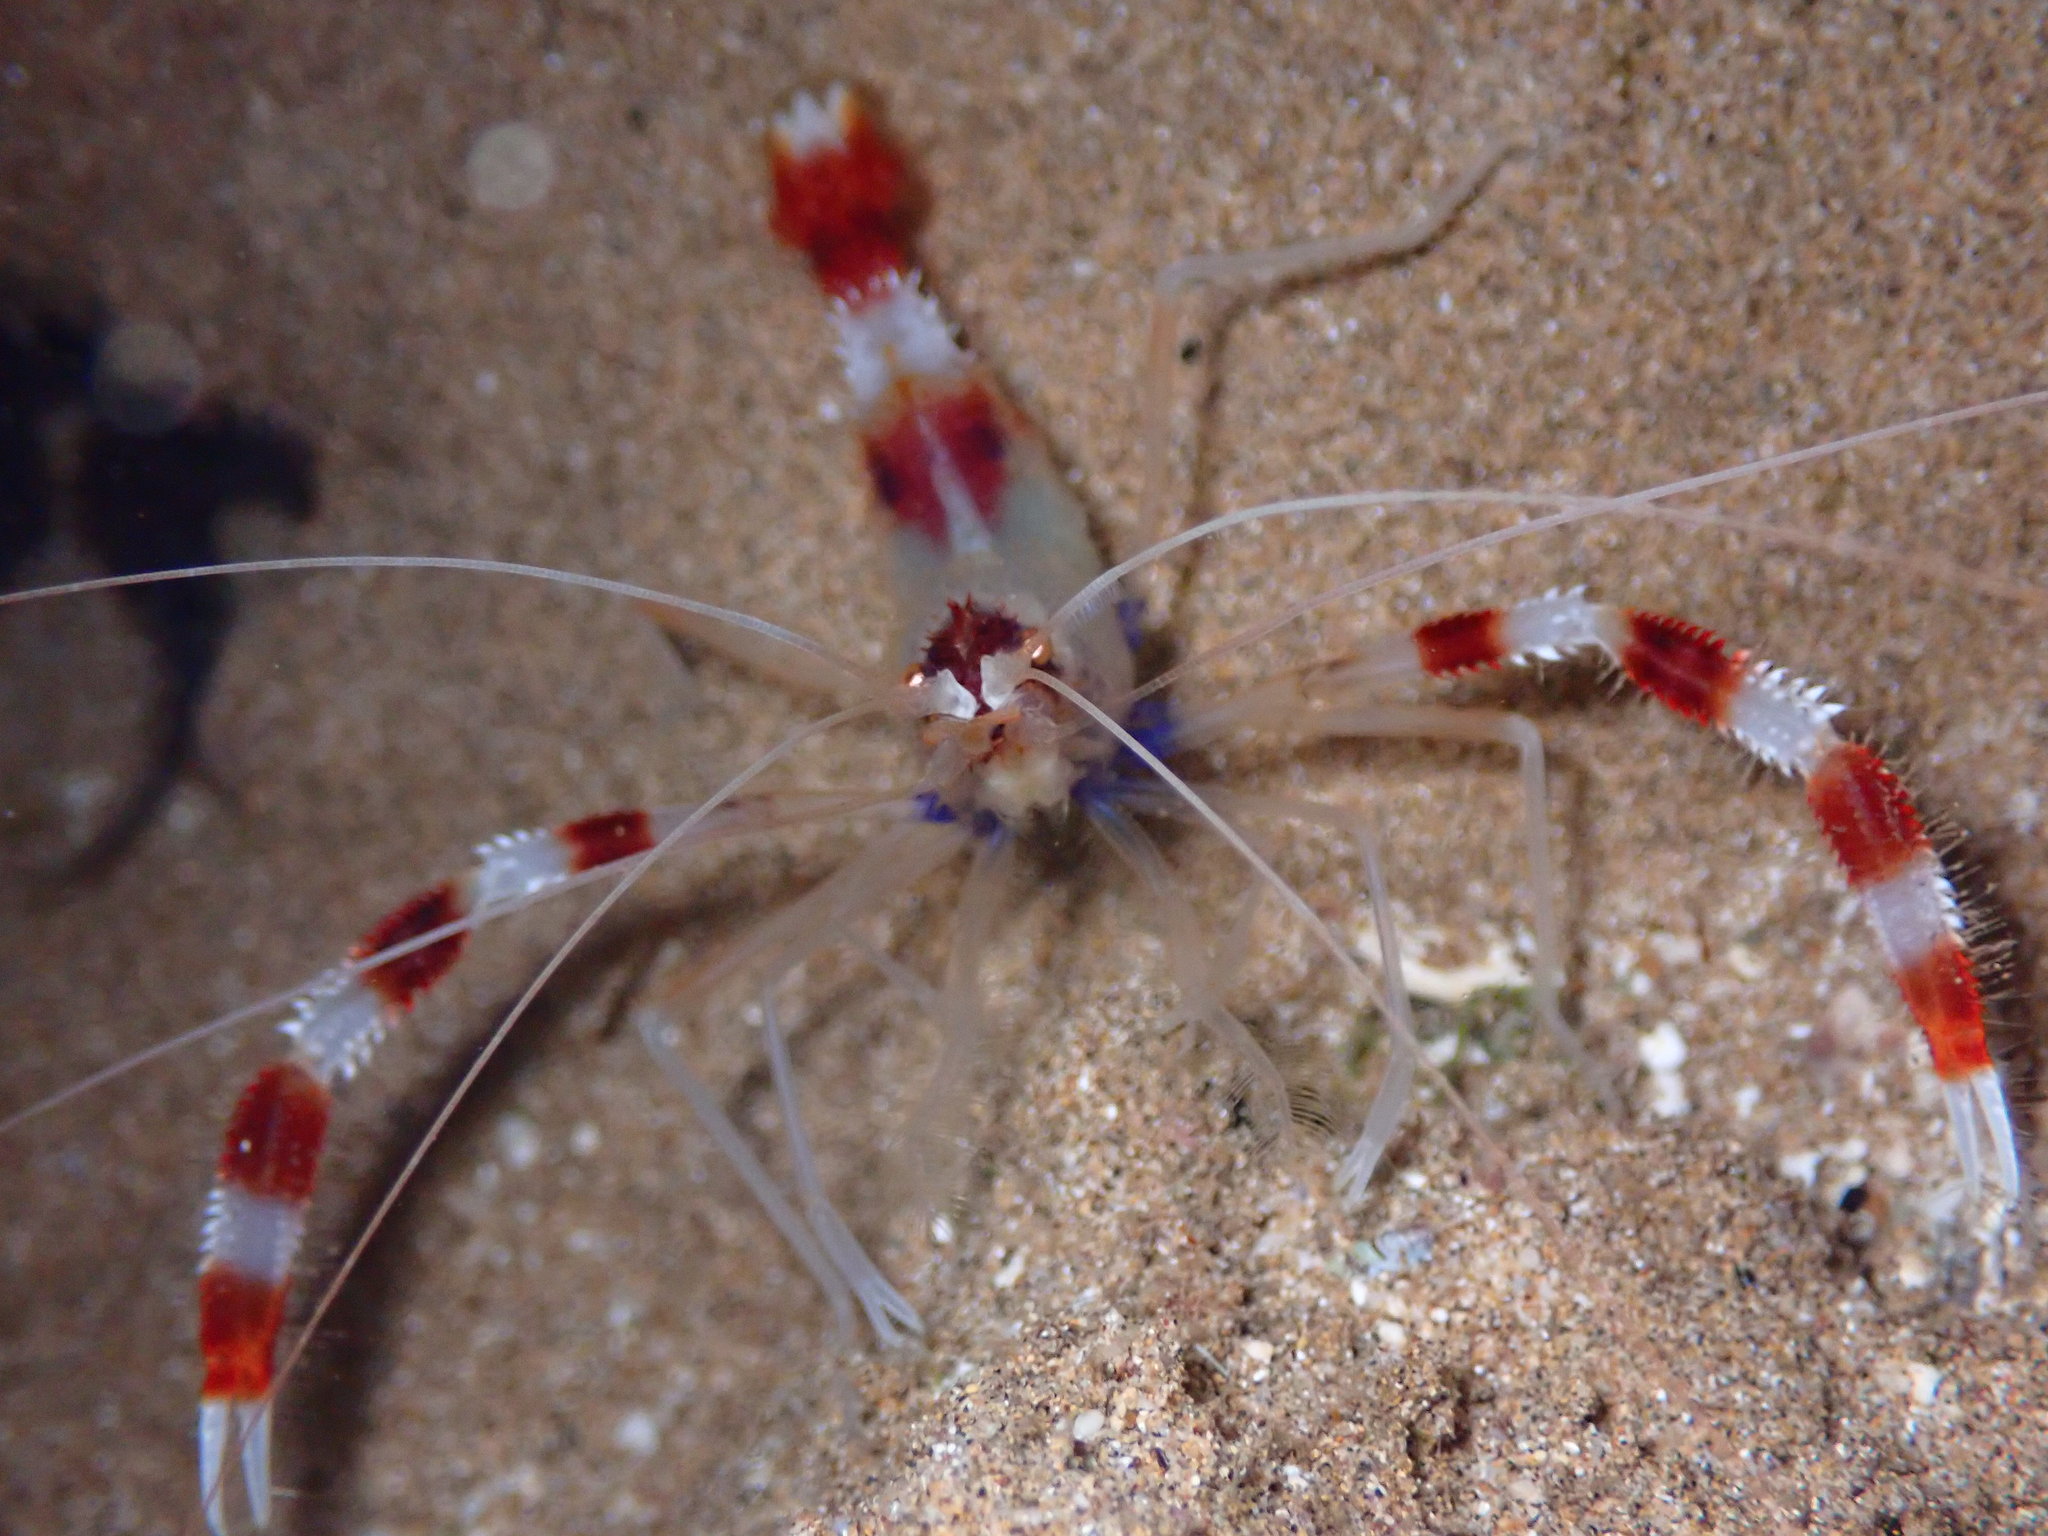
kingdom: Animalia
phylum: Arthropoda
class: Malacostraca
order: Decapoda
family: Stenopodidae
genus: Stenopus
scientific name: Stenopus hispidus
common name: Banded coral shrimp
